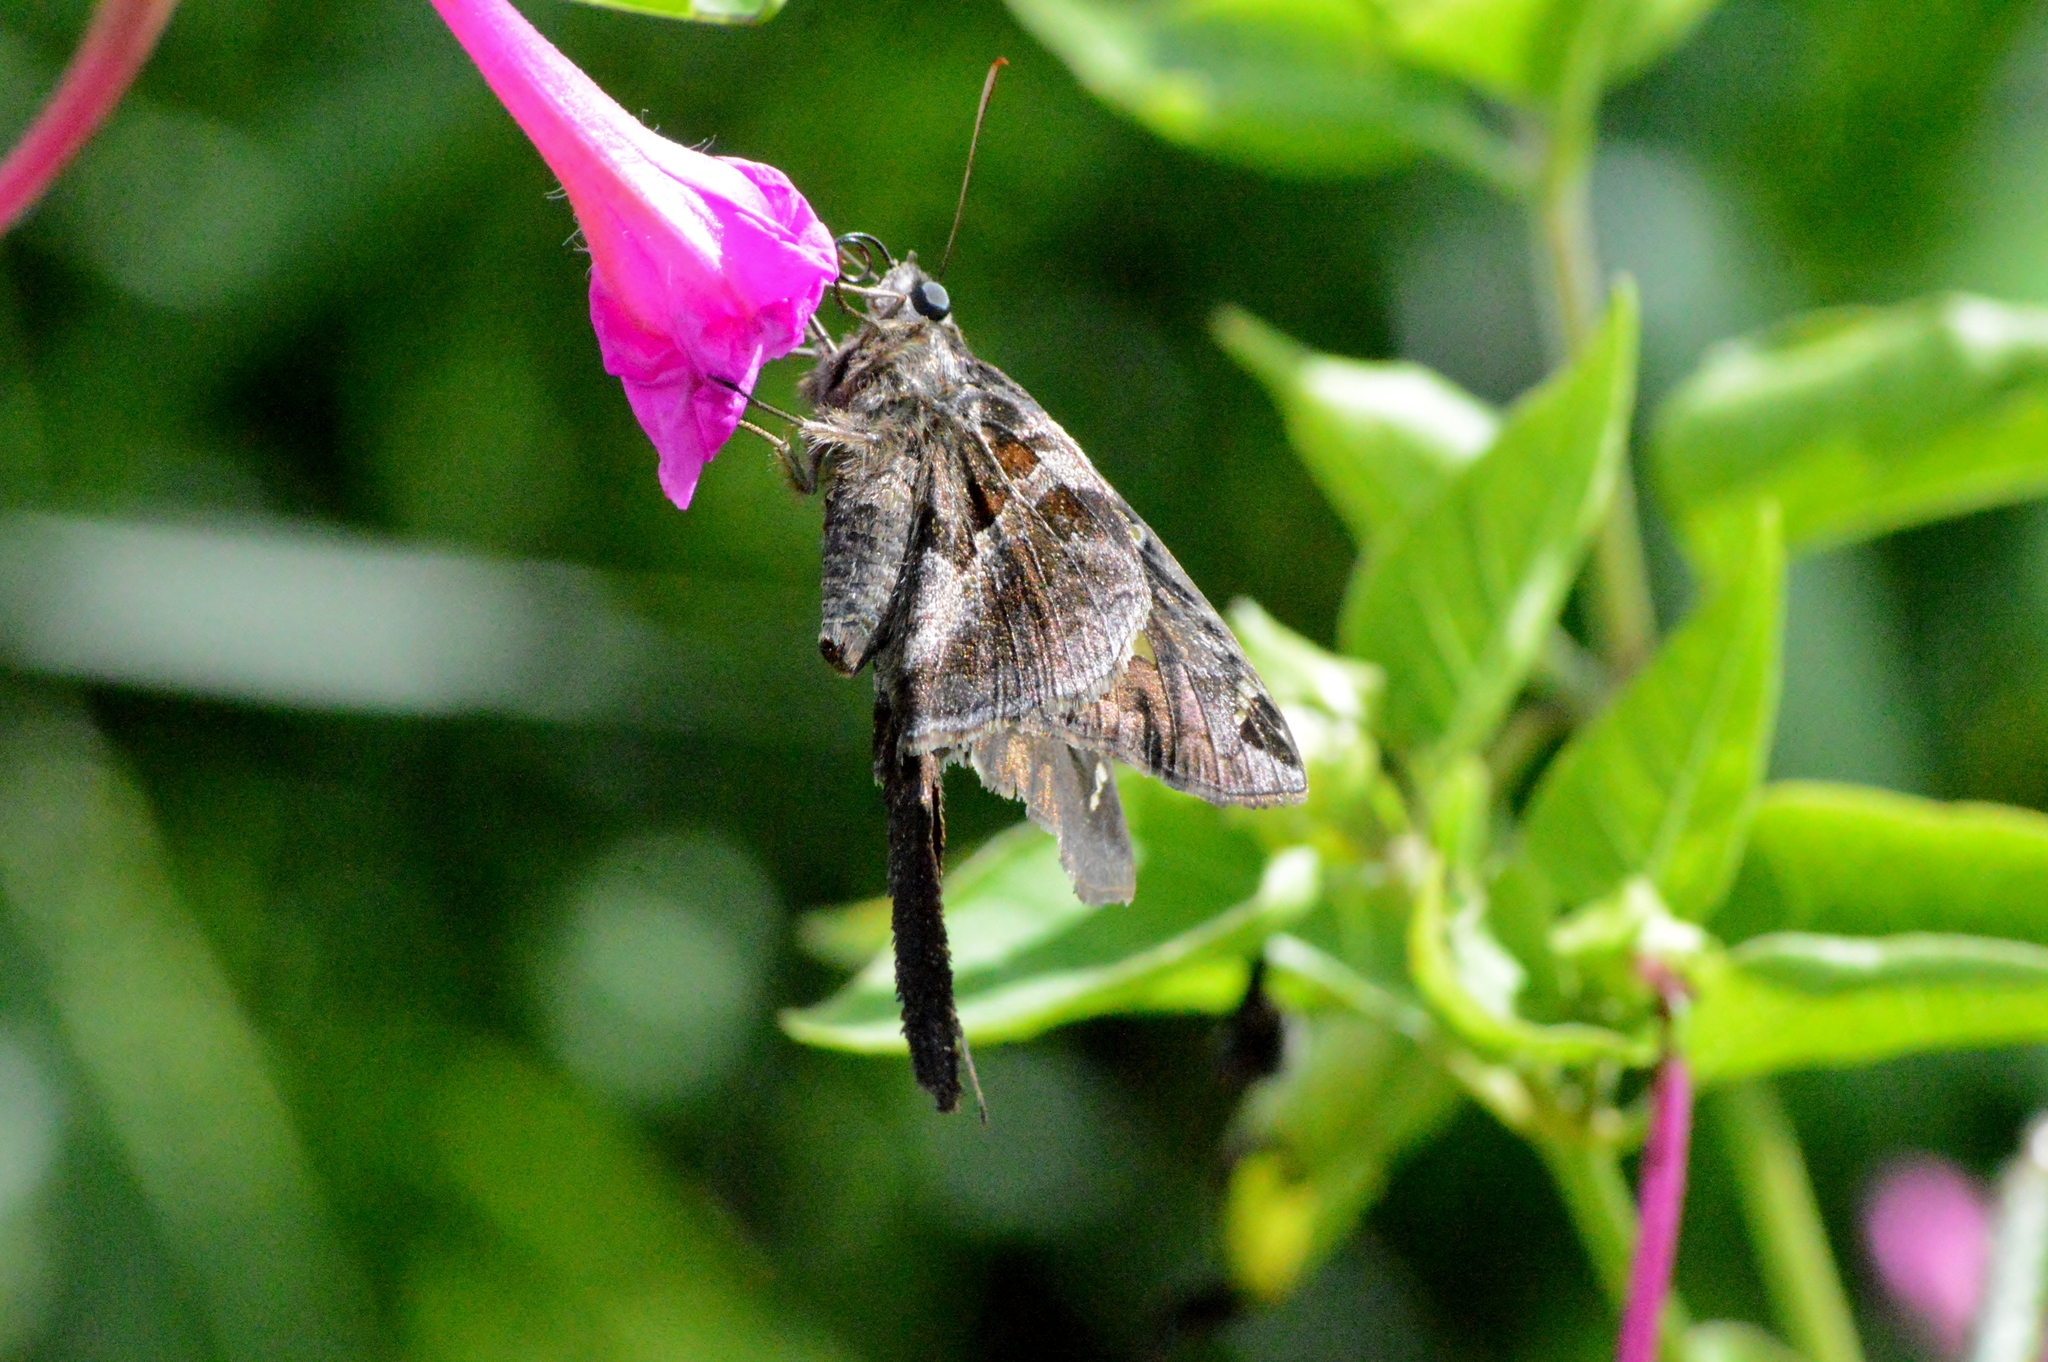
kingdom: Animalia
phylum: Arthropoda
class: Insecta
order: Lepidoptera
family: Hesperiidae
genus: Chioides
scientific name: Chioides catillus
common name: Silverbanded skipper
